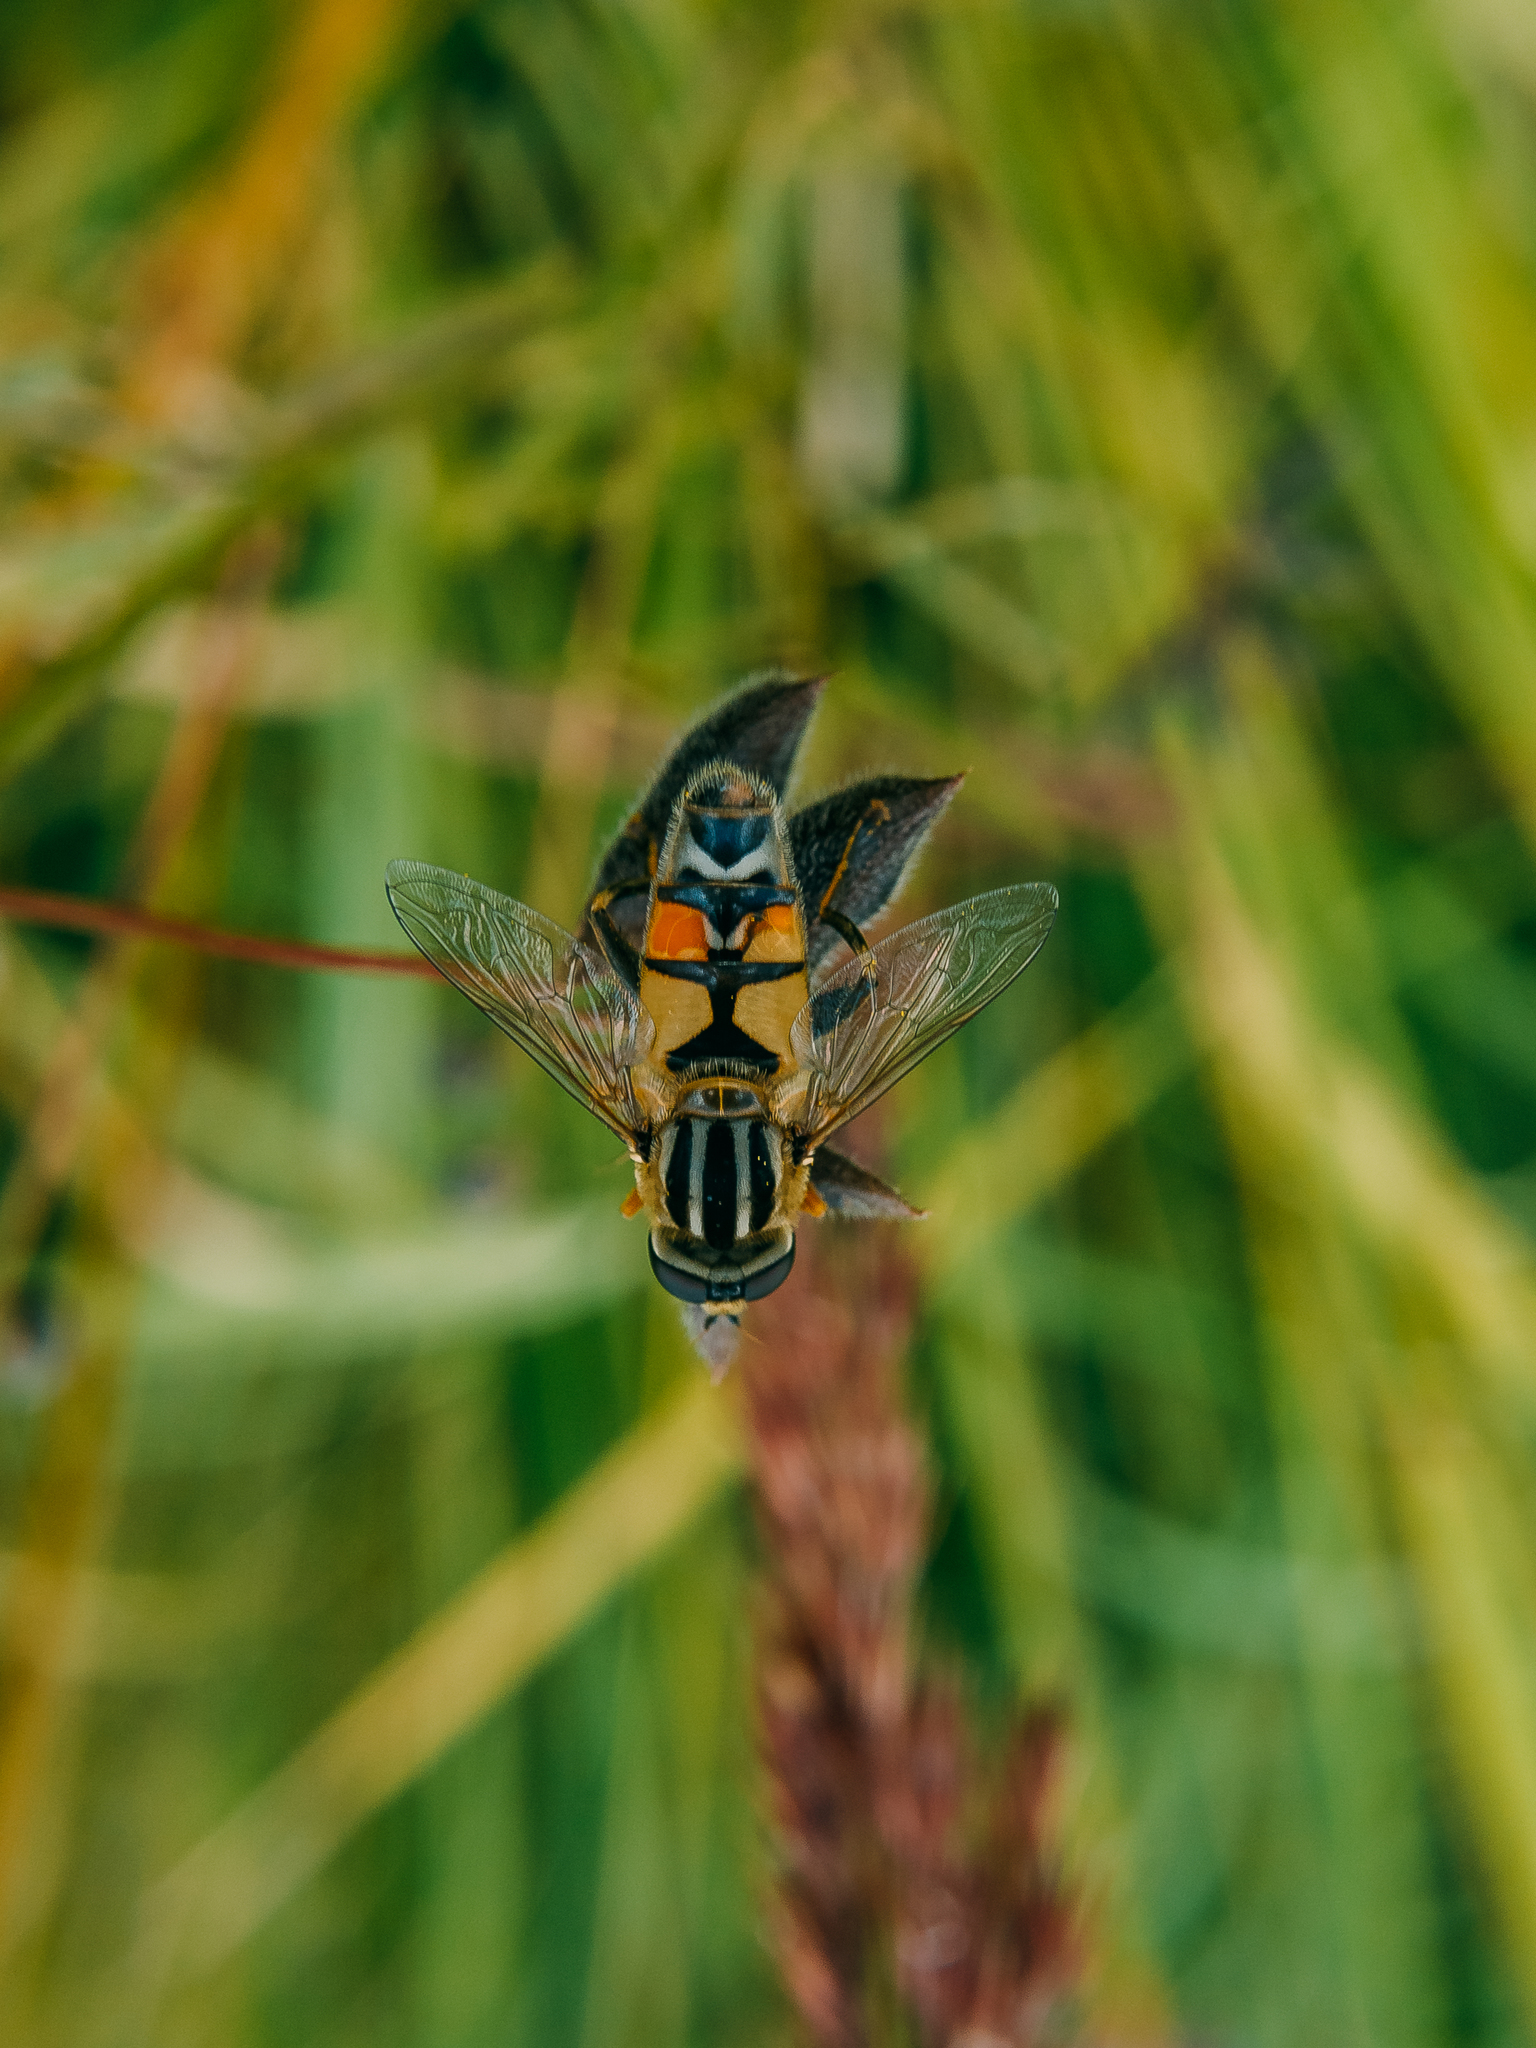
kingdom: Animalia
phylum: Arthropoda
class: Insecta
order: Diptera
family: Syrphidae
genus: Helophilus
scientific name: Helophilus trivittatus
